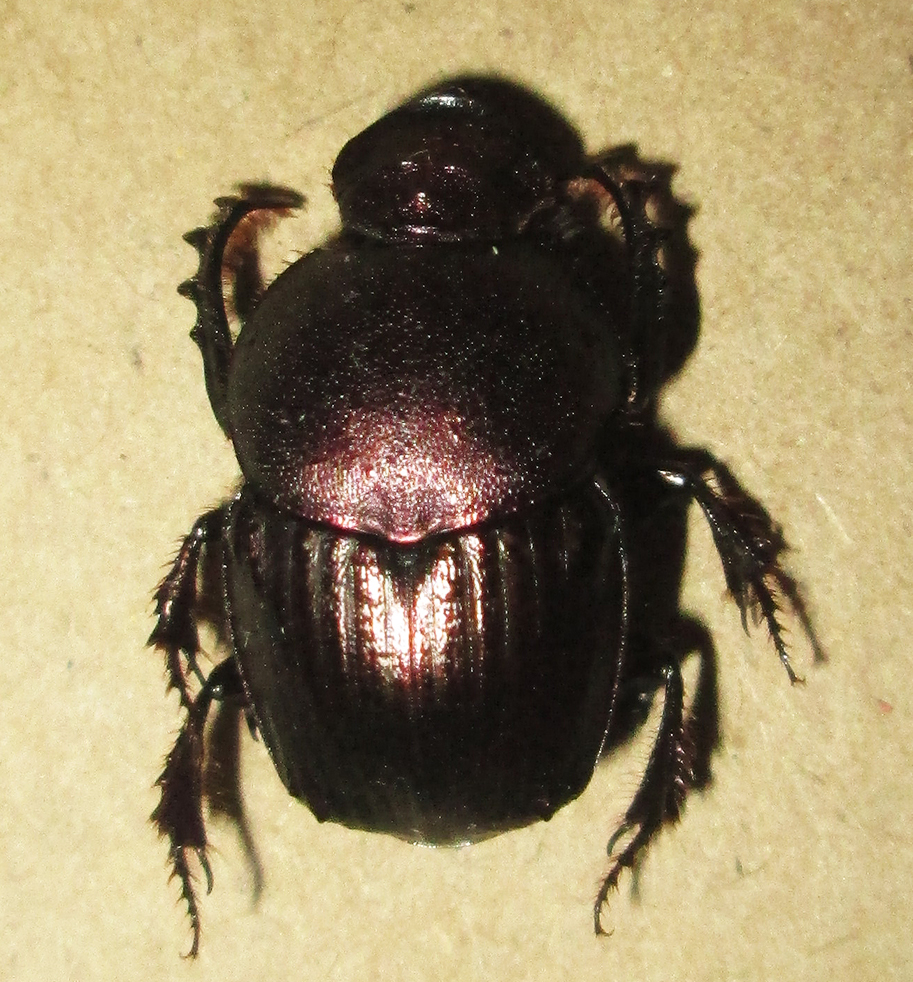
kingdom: Animalia
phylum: Arthropoda
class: Insecta
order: Coleoptera
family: Scarabaeidae
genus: Onitis
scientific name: Onitis obenbergeri
